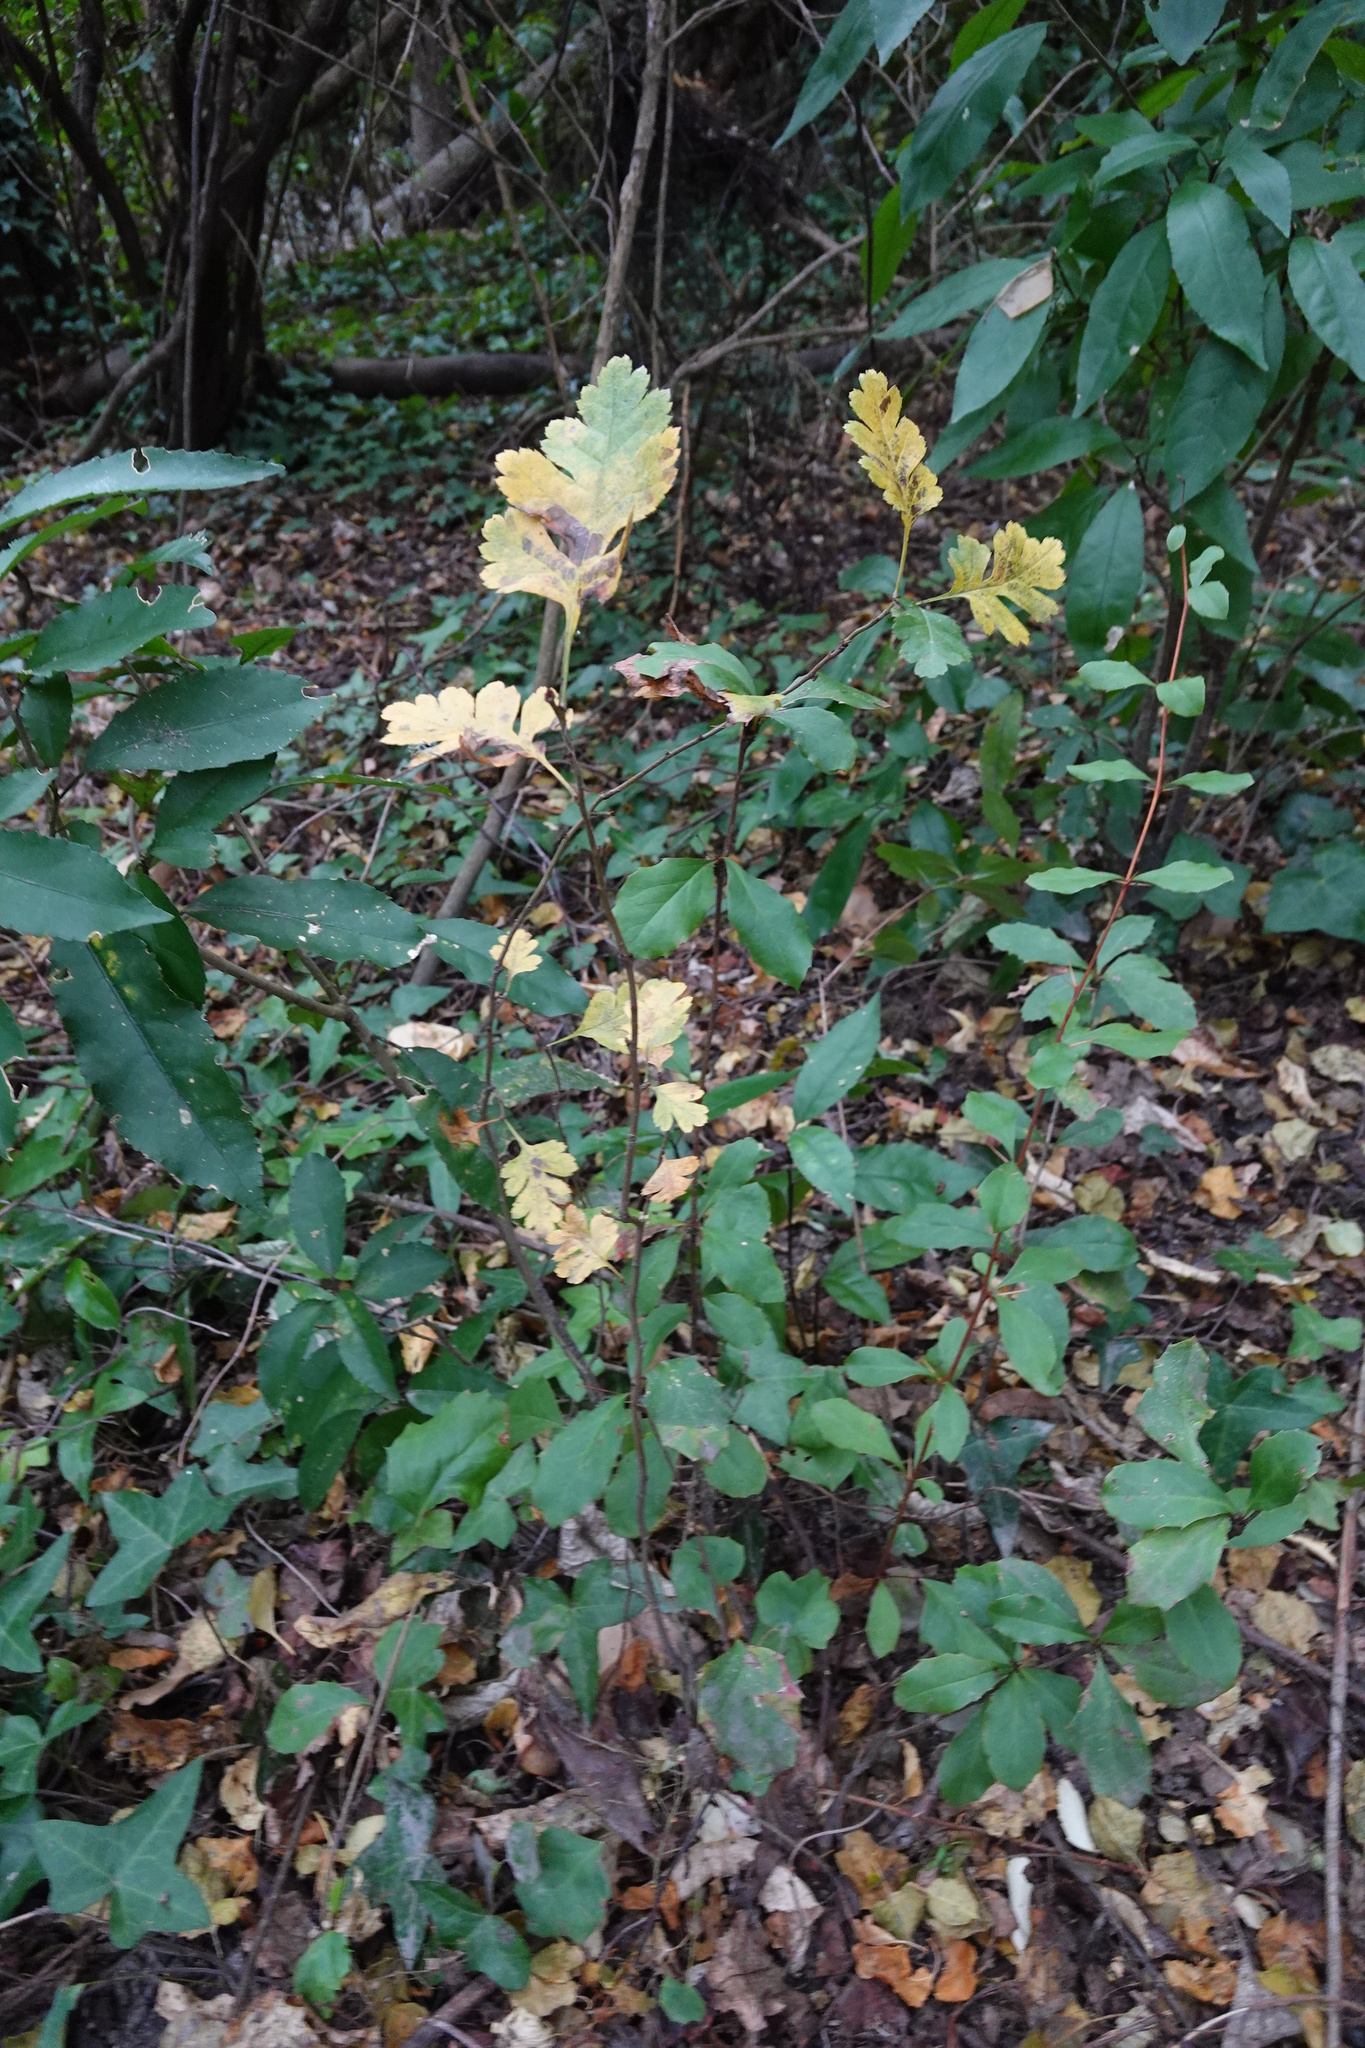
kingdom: Plantae
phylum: Tracheophyta
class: Magnoliopsida
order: Rosales
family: Rosaceae
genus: Crataegus
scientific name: Crataegus monogyna
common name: Hawthorn
